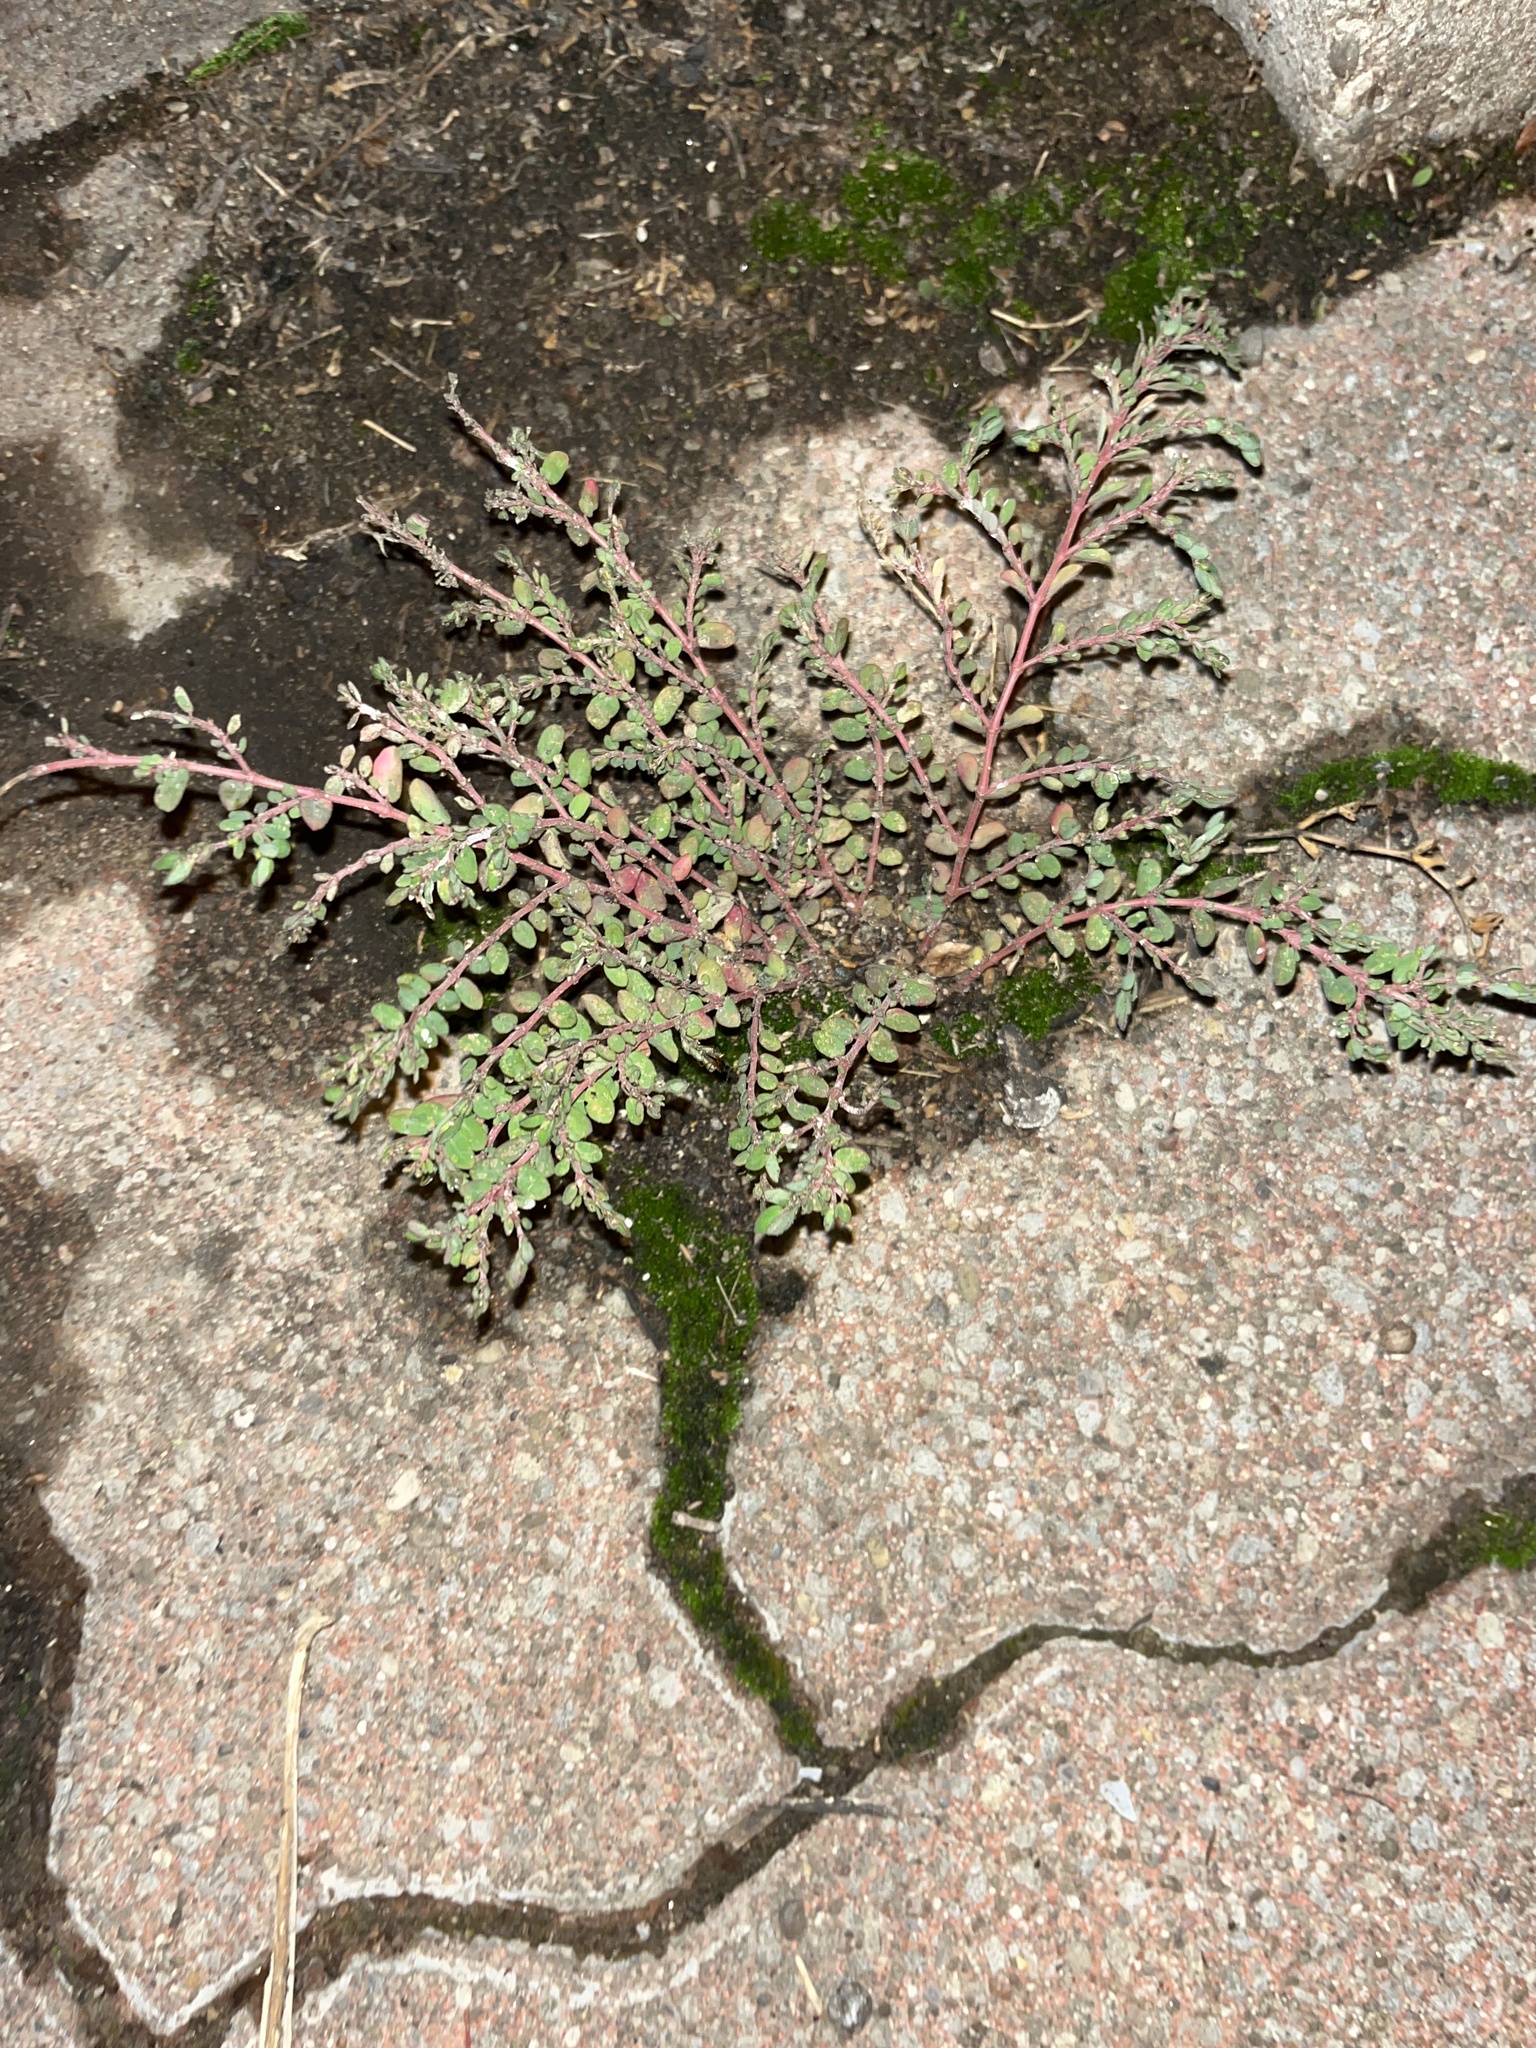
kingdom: Plantae
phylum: Tracheophyta
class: Magnoliopsida
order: Malpighiales
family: Euphorbiaceae
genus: Euphorbia
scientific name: Euphorbia prostrata
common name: Prostrate sandmat
